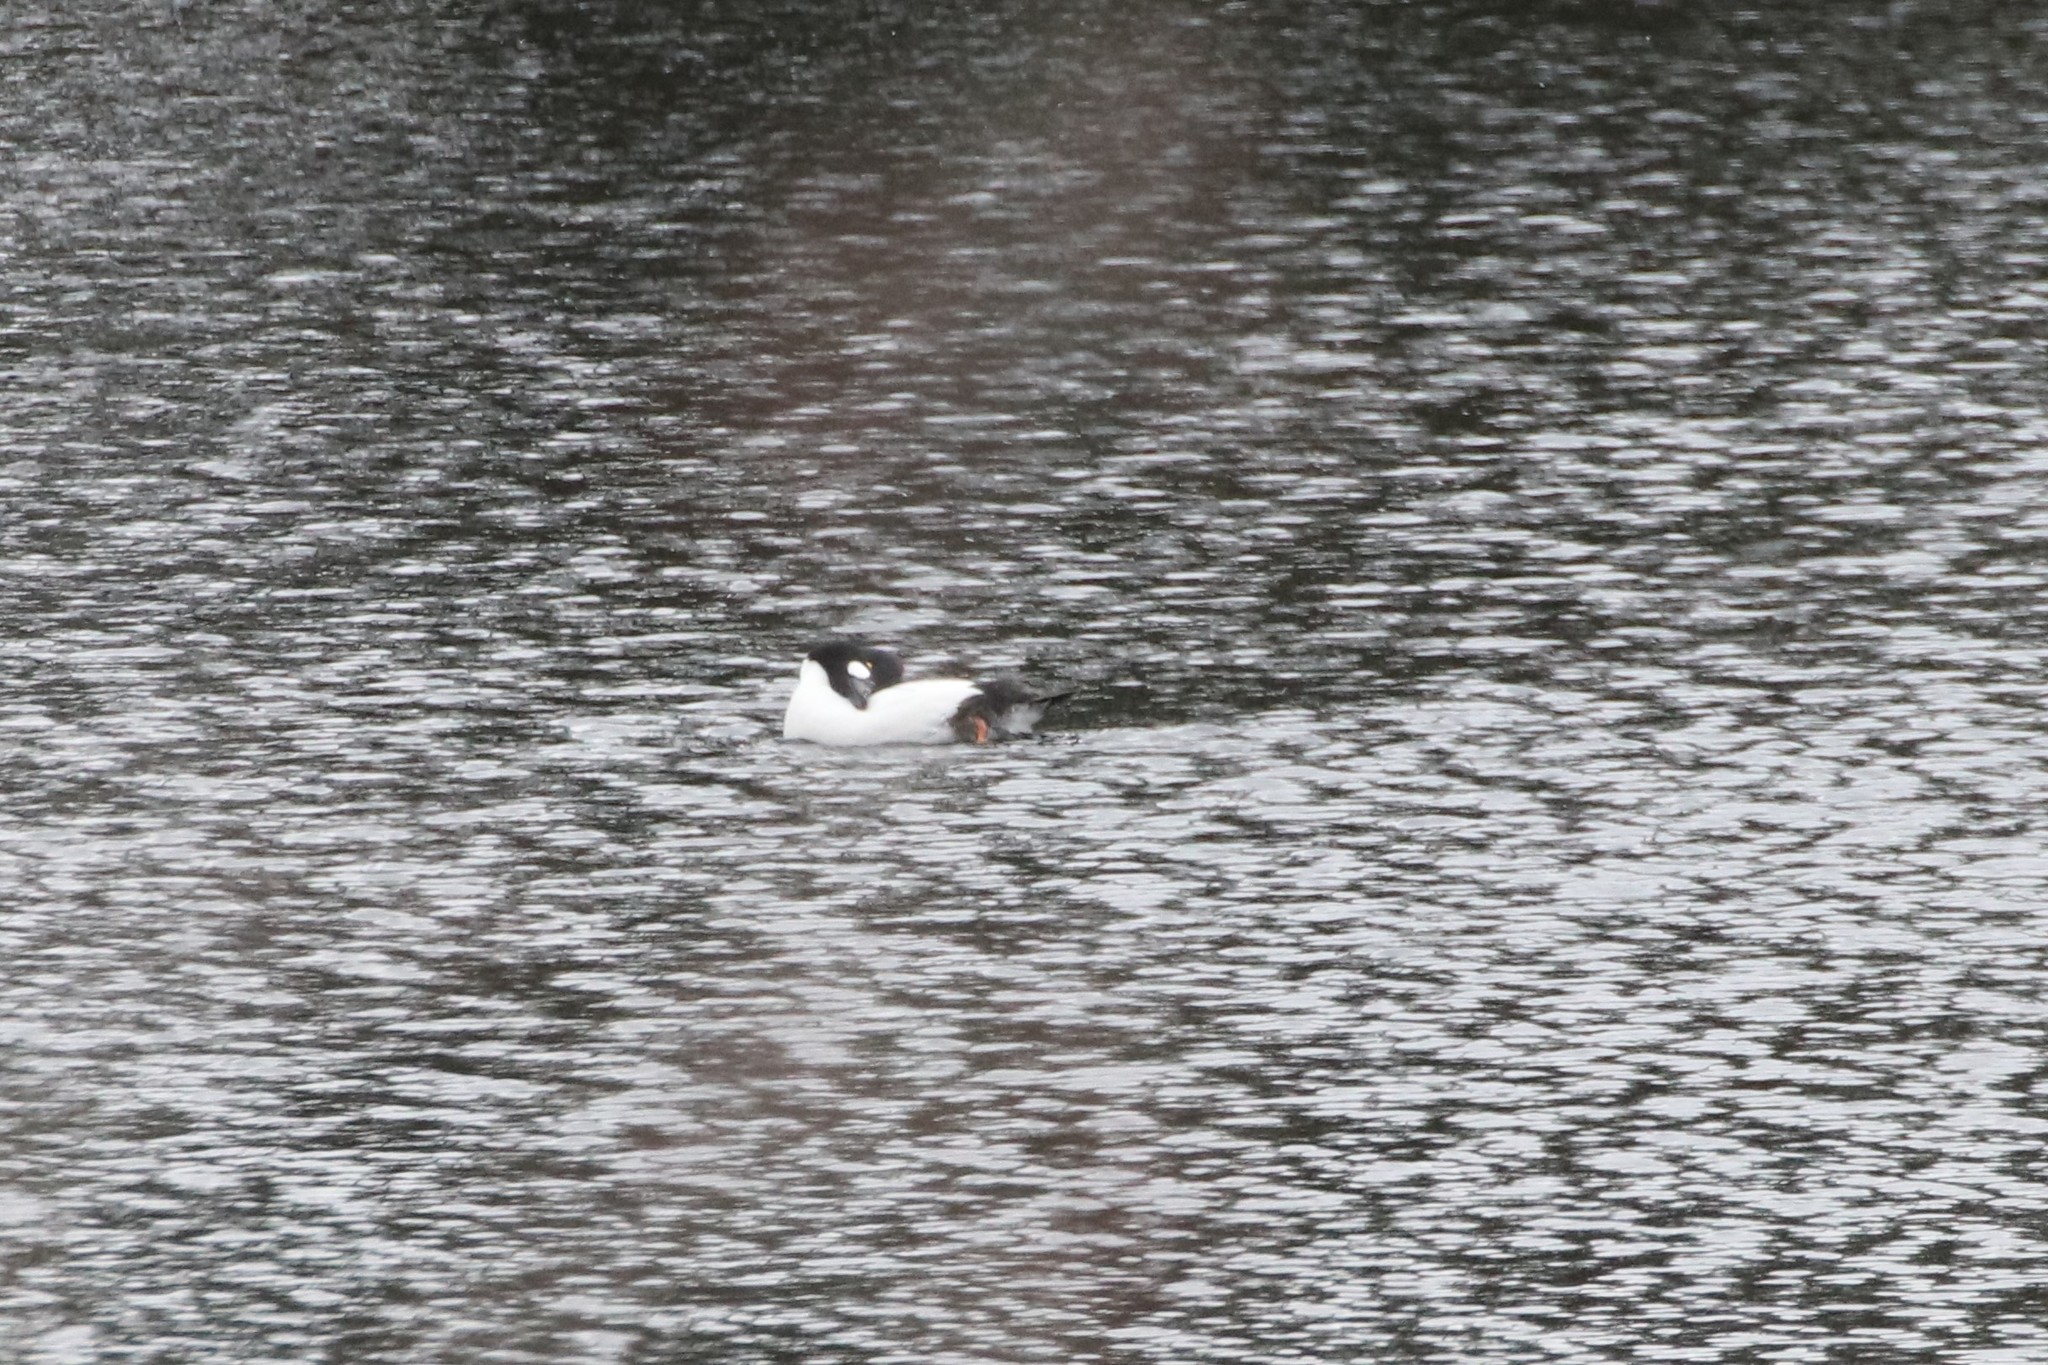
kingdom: Animalia
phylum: Chordata
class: Aves
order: Anseriformes
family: Anatidae
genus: Bucephala
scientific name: Bucephala clangula
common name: Common goldeneye
